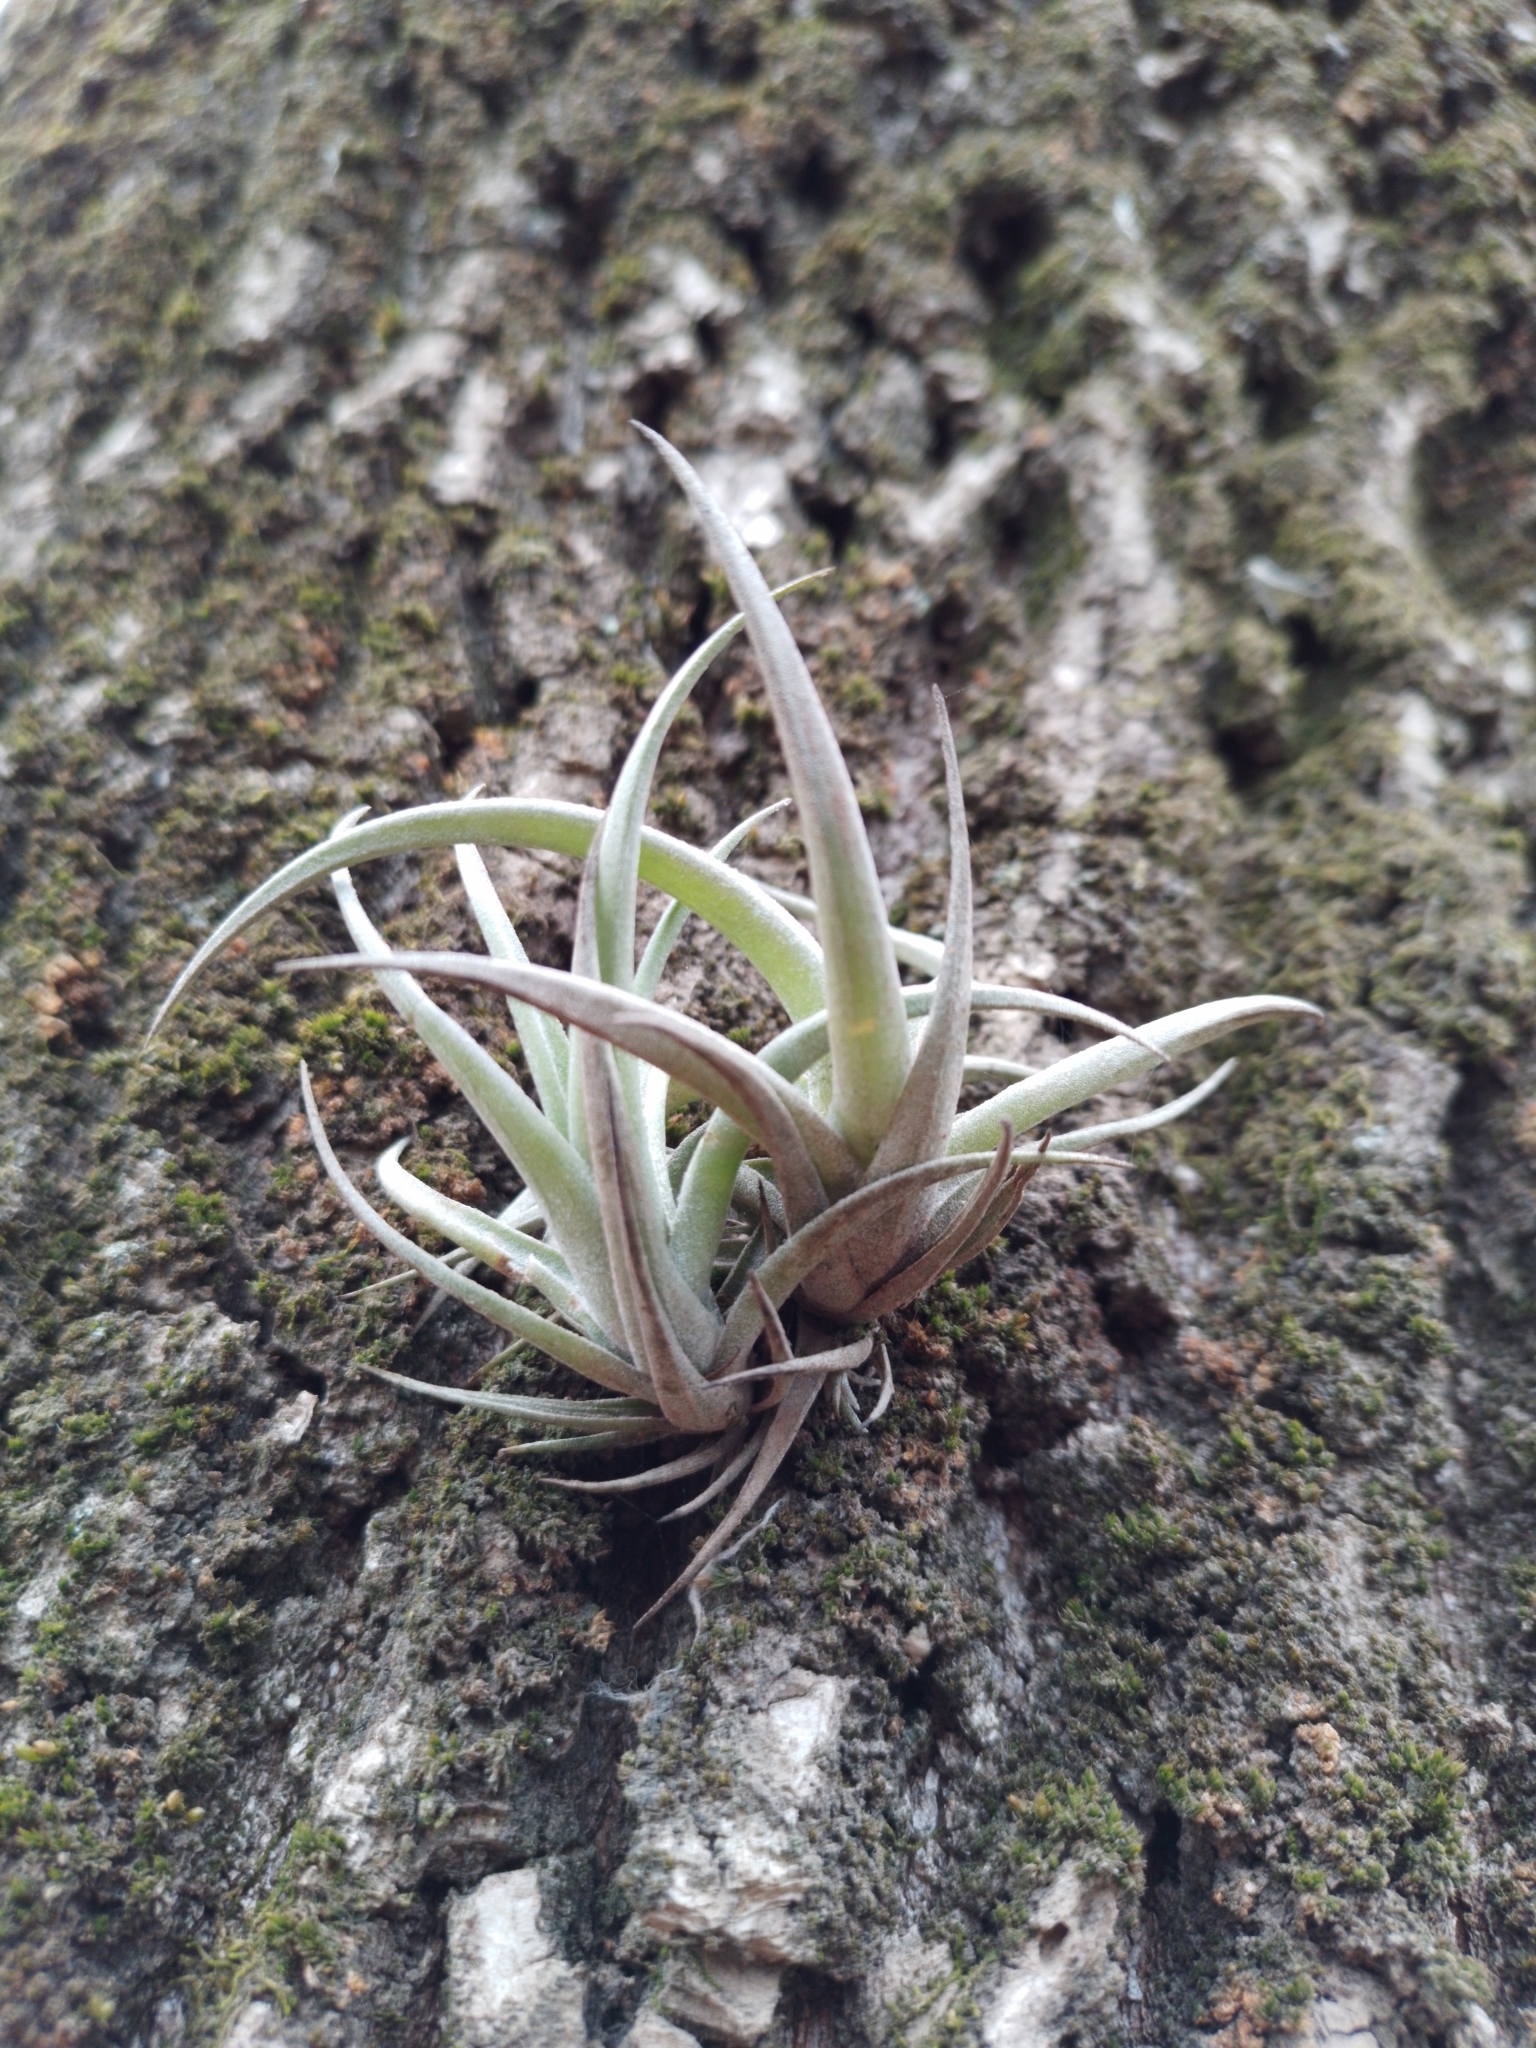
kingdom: Plantae
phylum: Tracheophyta
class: Liliopsida
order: Poales
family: Bromeliaceae
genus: Tillandsia
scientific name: Tillandsia aeranthos
